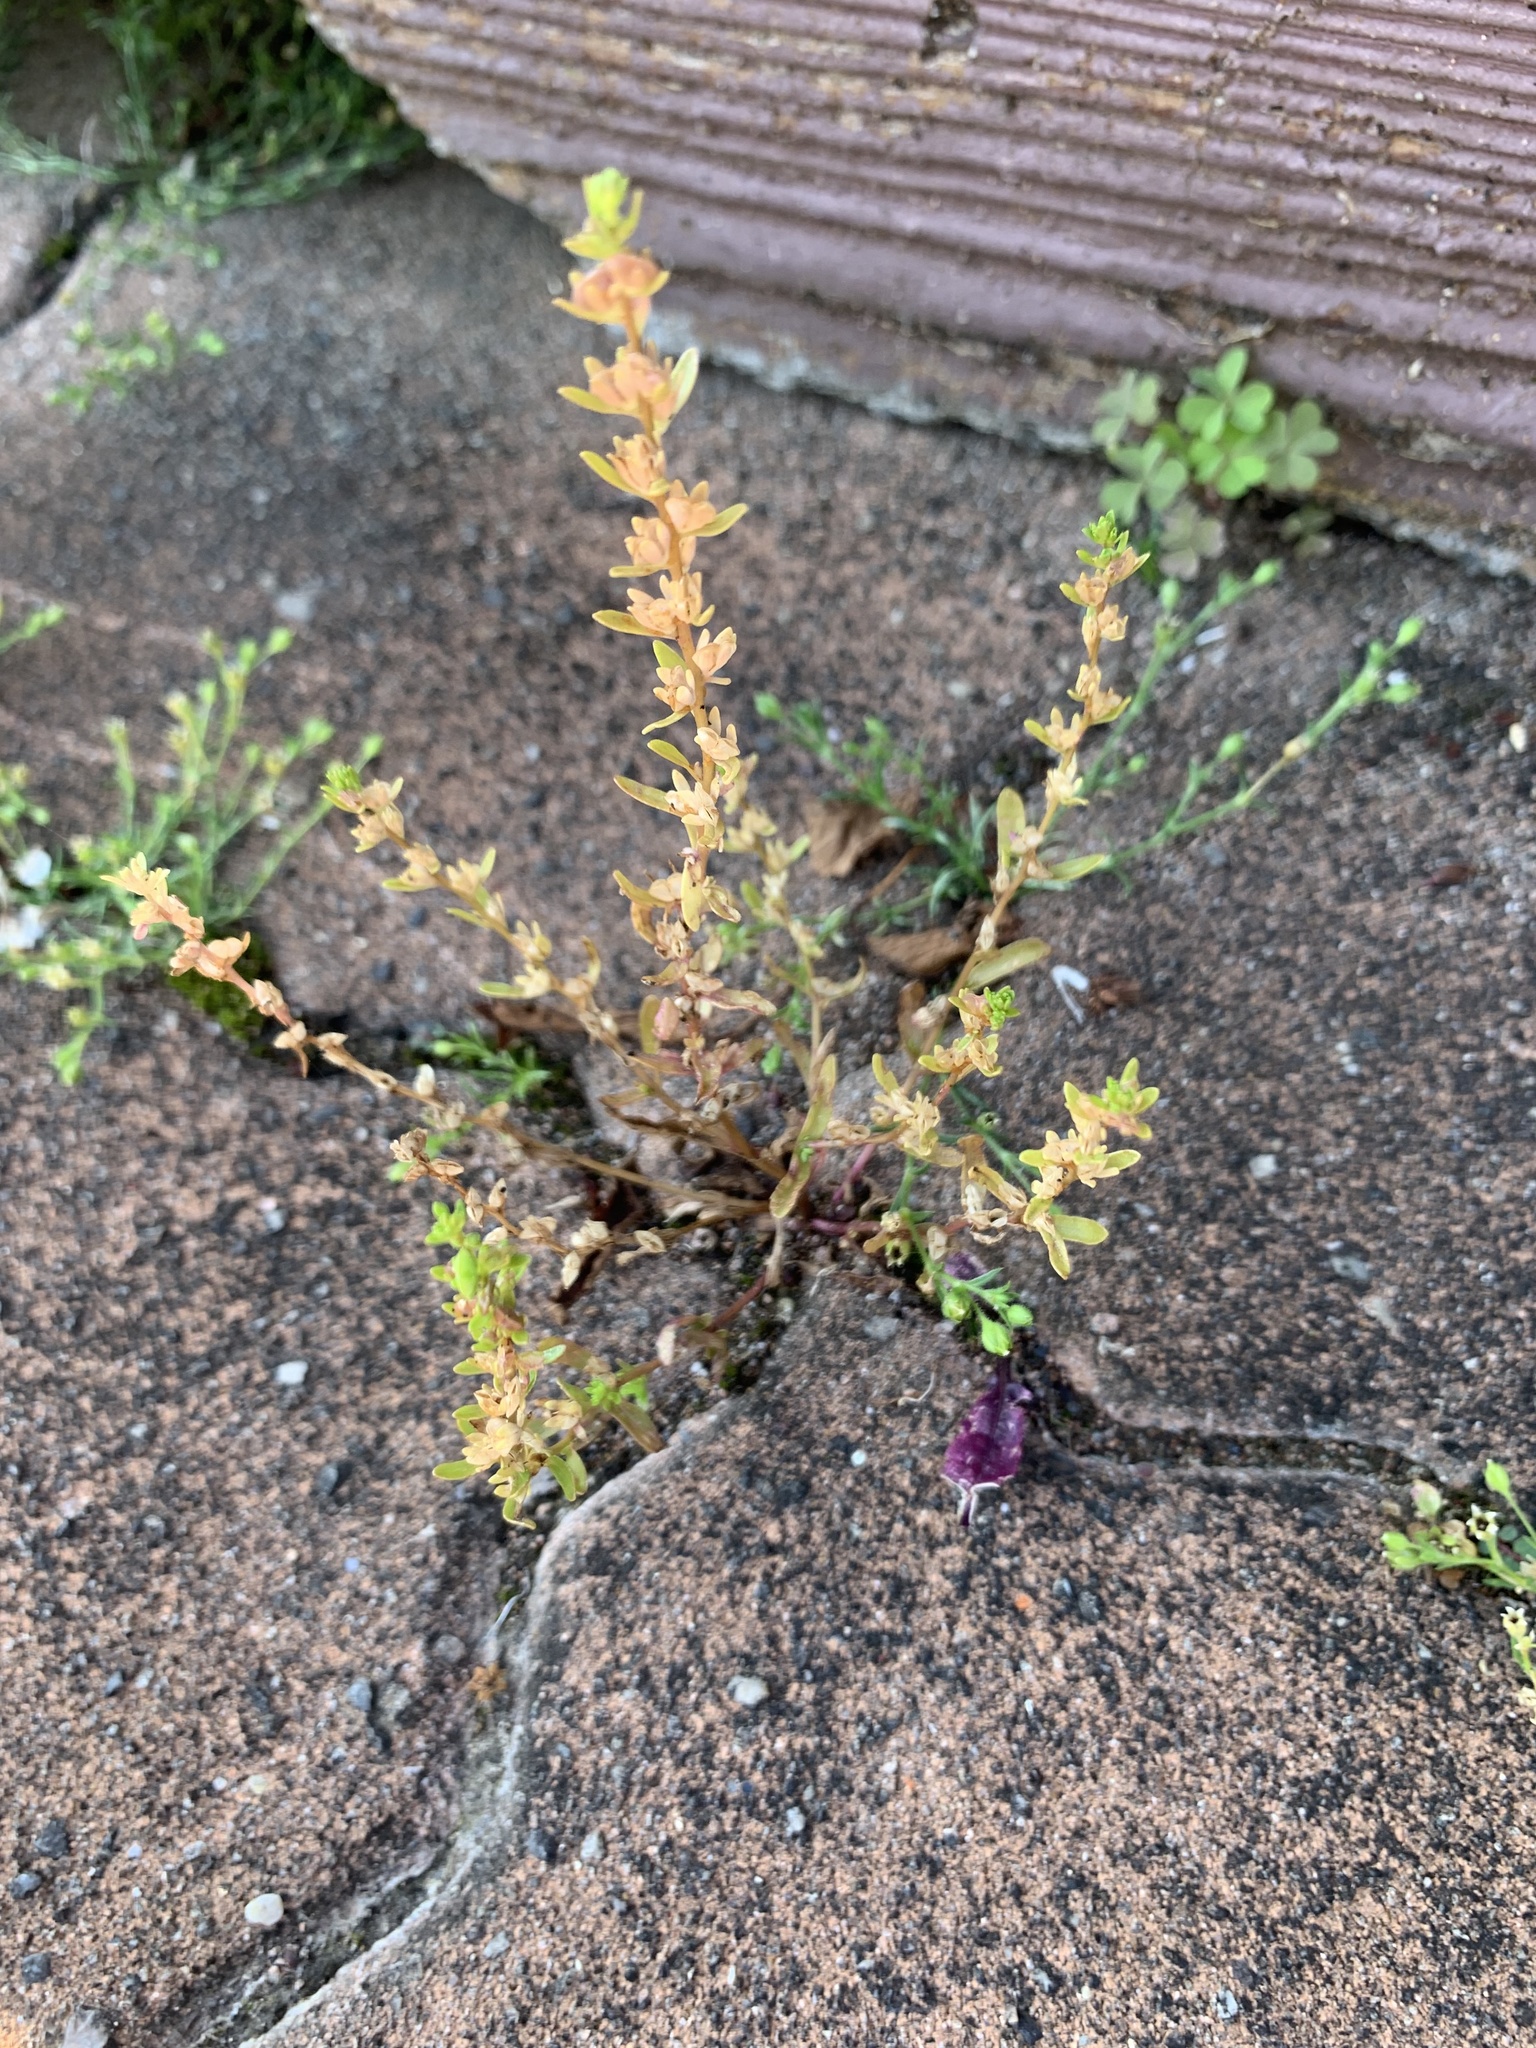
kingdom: Plantae
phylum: Tracheophyta
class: Magnoliopsida
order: Lamiales
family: Plantaginaceae
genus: Veronica
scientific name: Veronica peregrina
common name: Neckweed
